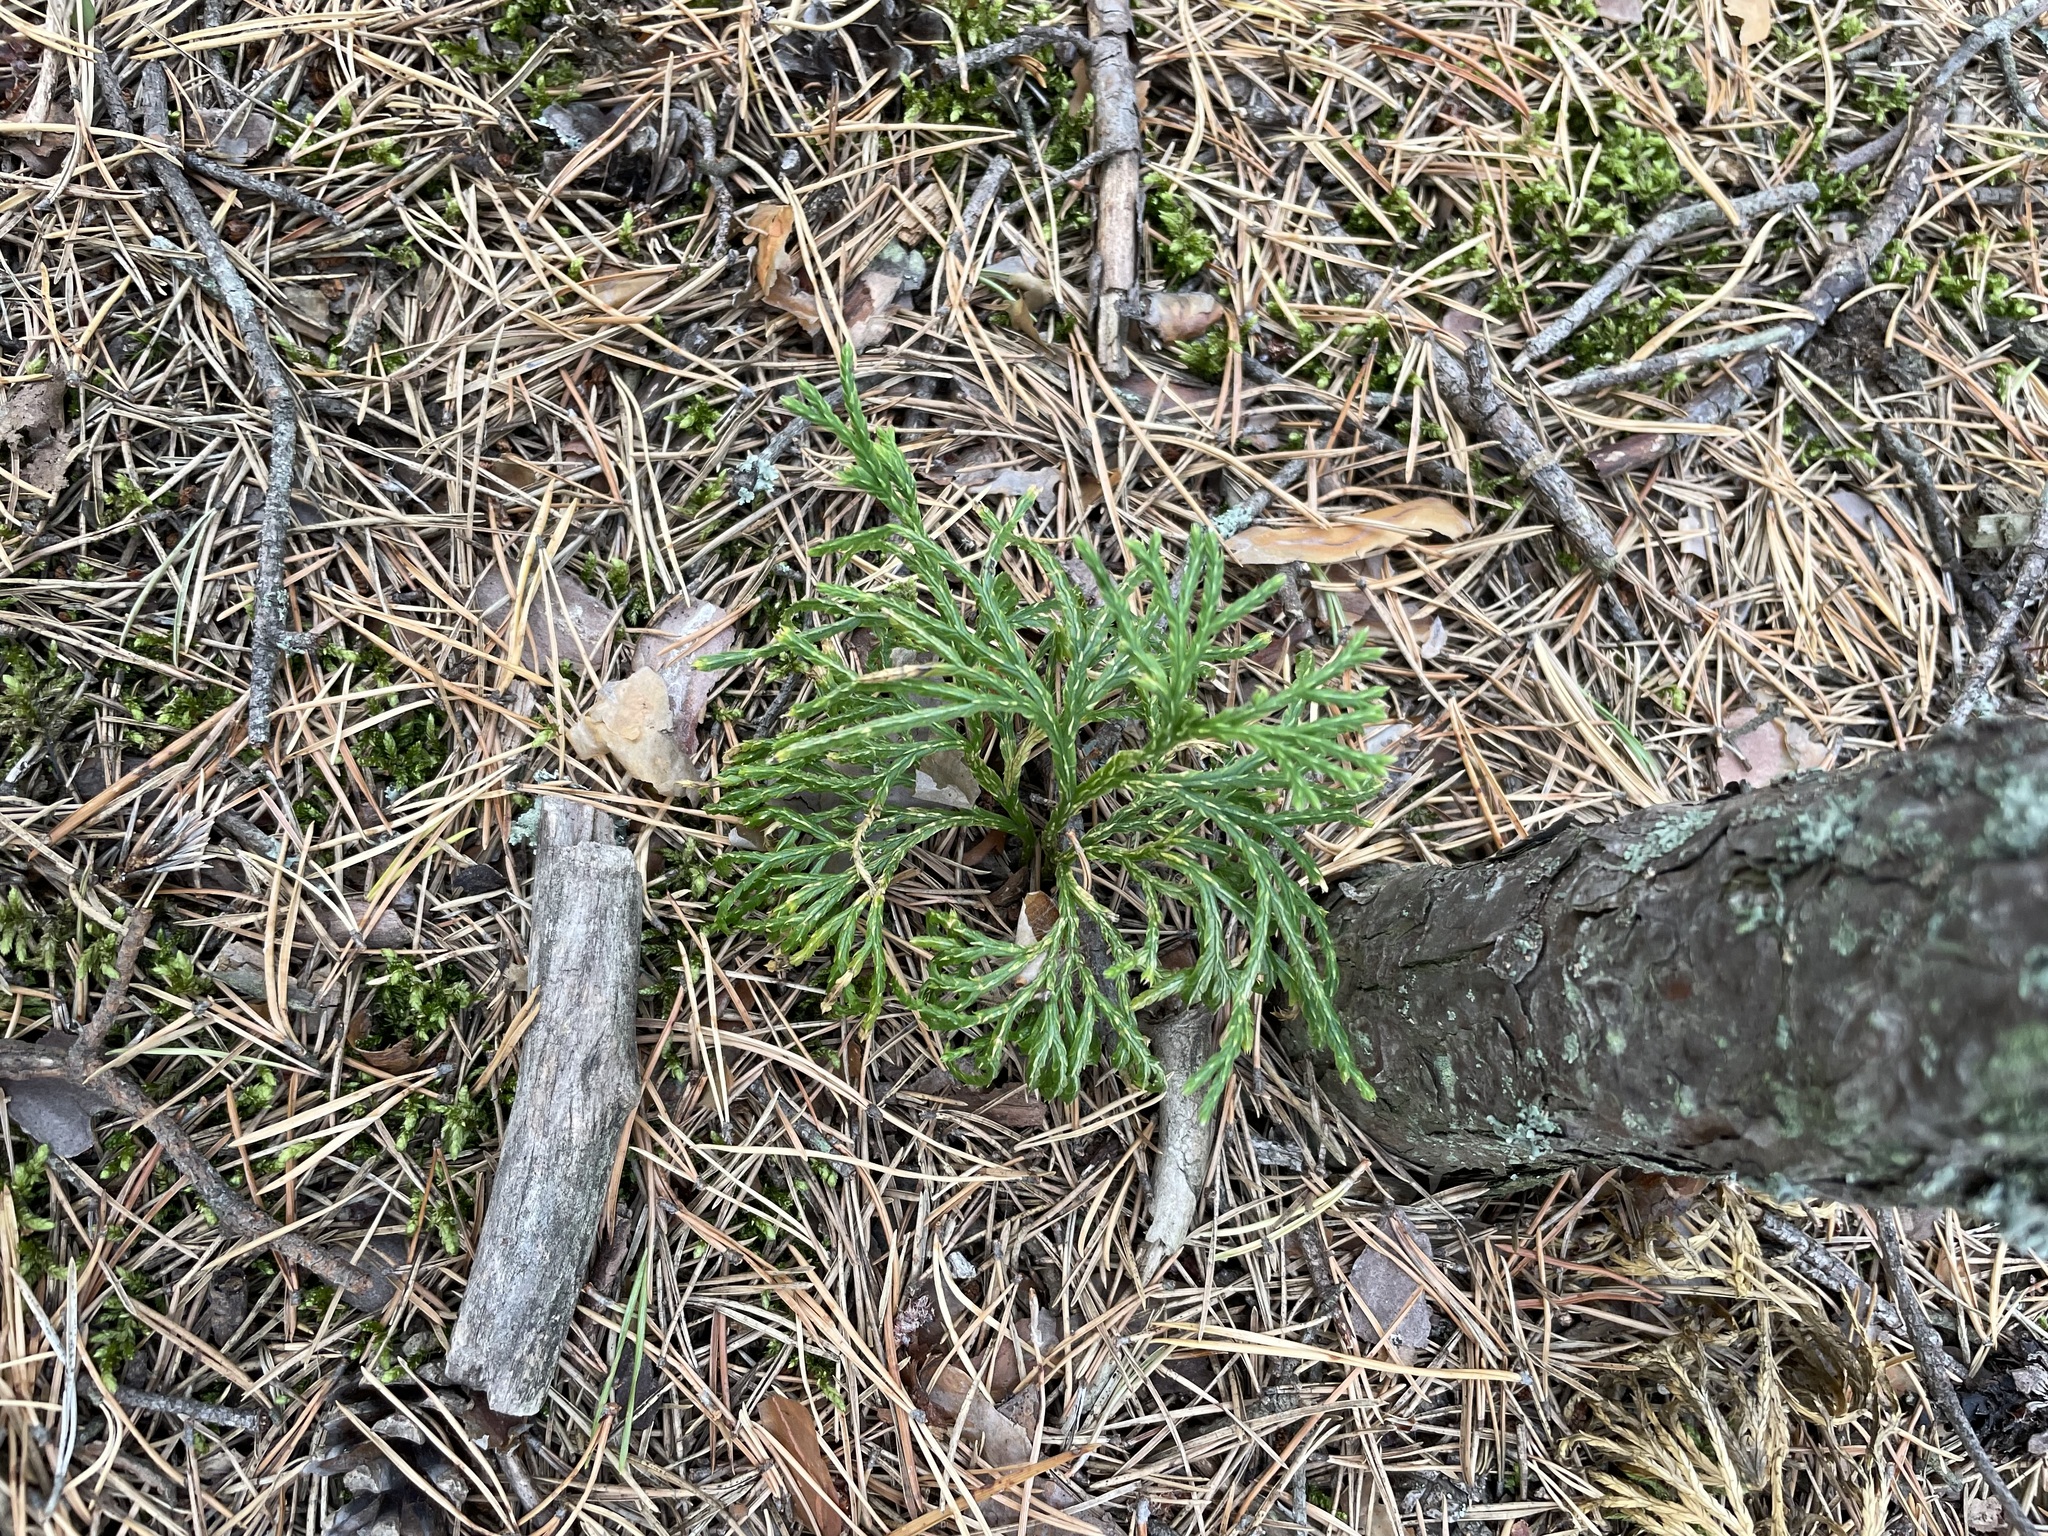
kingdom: Plantae
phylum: Tracheophyta
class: Lycopodiopsida
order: Lycopodiales
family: Lycopodiaceae
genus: Diphasiastrum
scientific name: Diphasiastrum complanatum
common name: Northern running-pine
